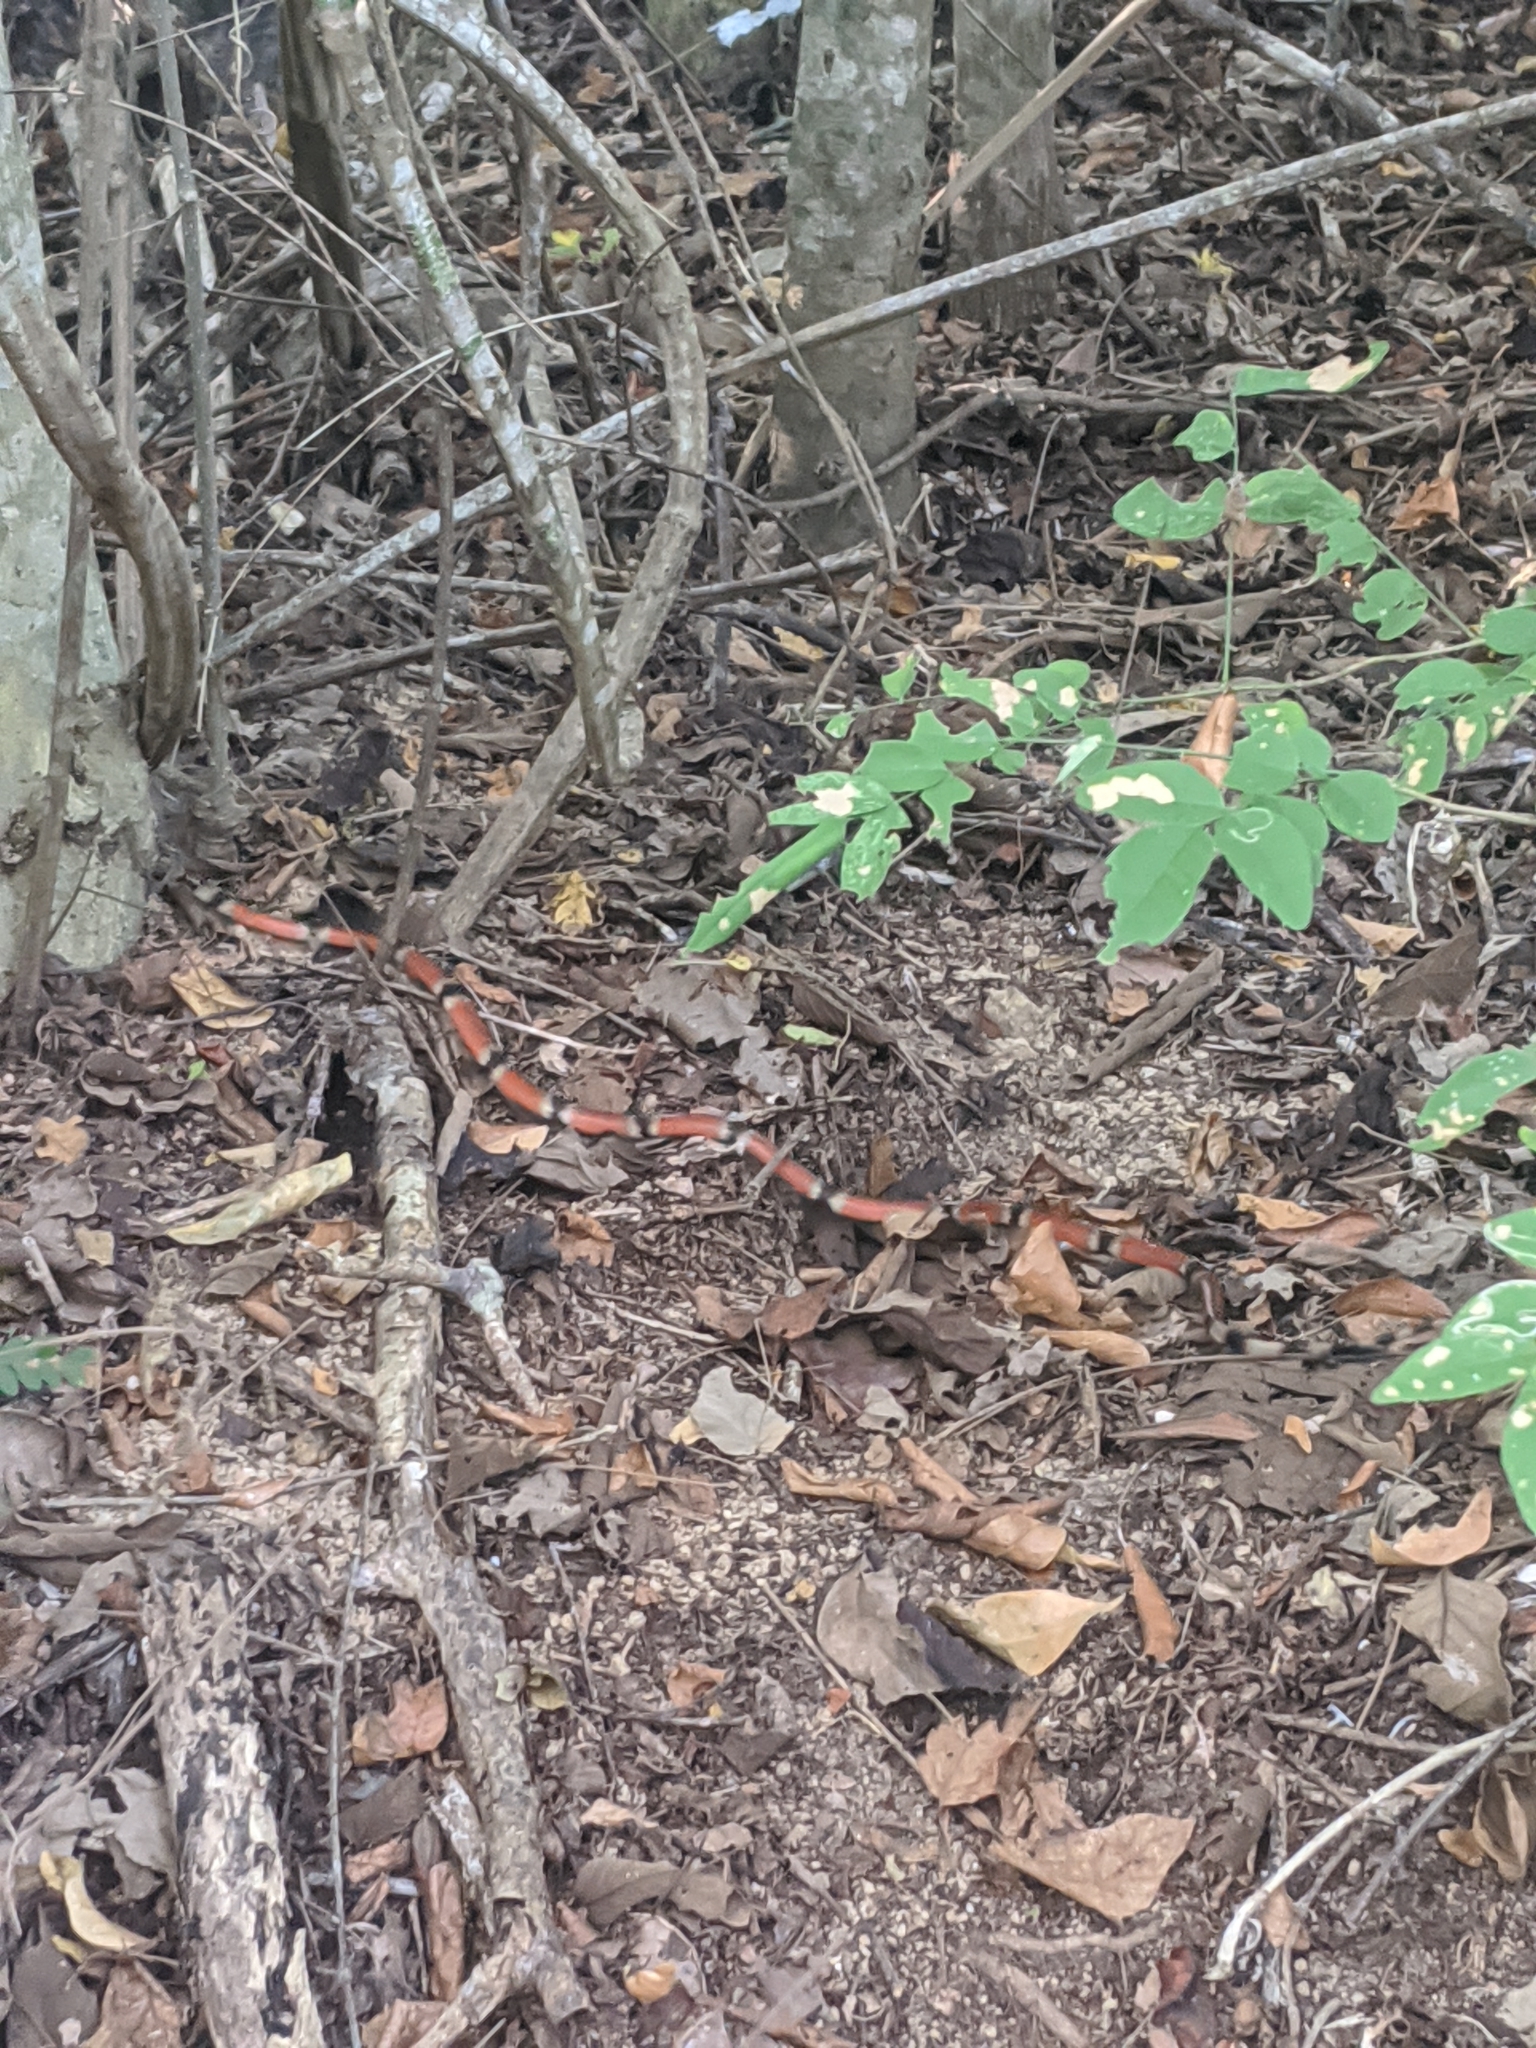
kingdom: Animalia
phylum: Chordata
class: Squamata
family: Elapidae
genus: Micrurus
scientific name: Micrurus distans
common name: Clear-banded coral snake
